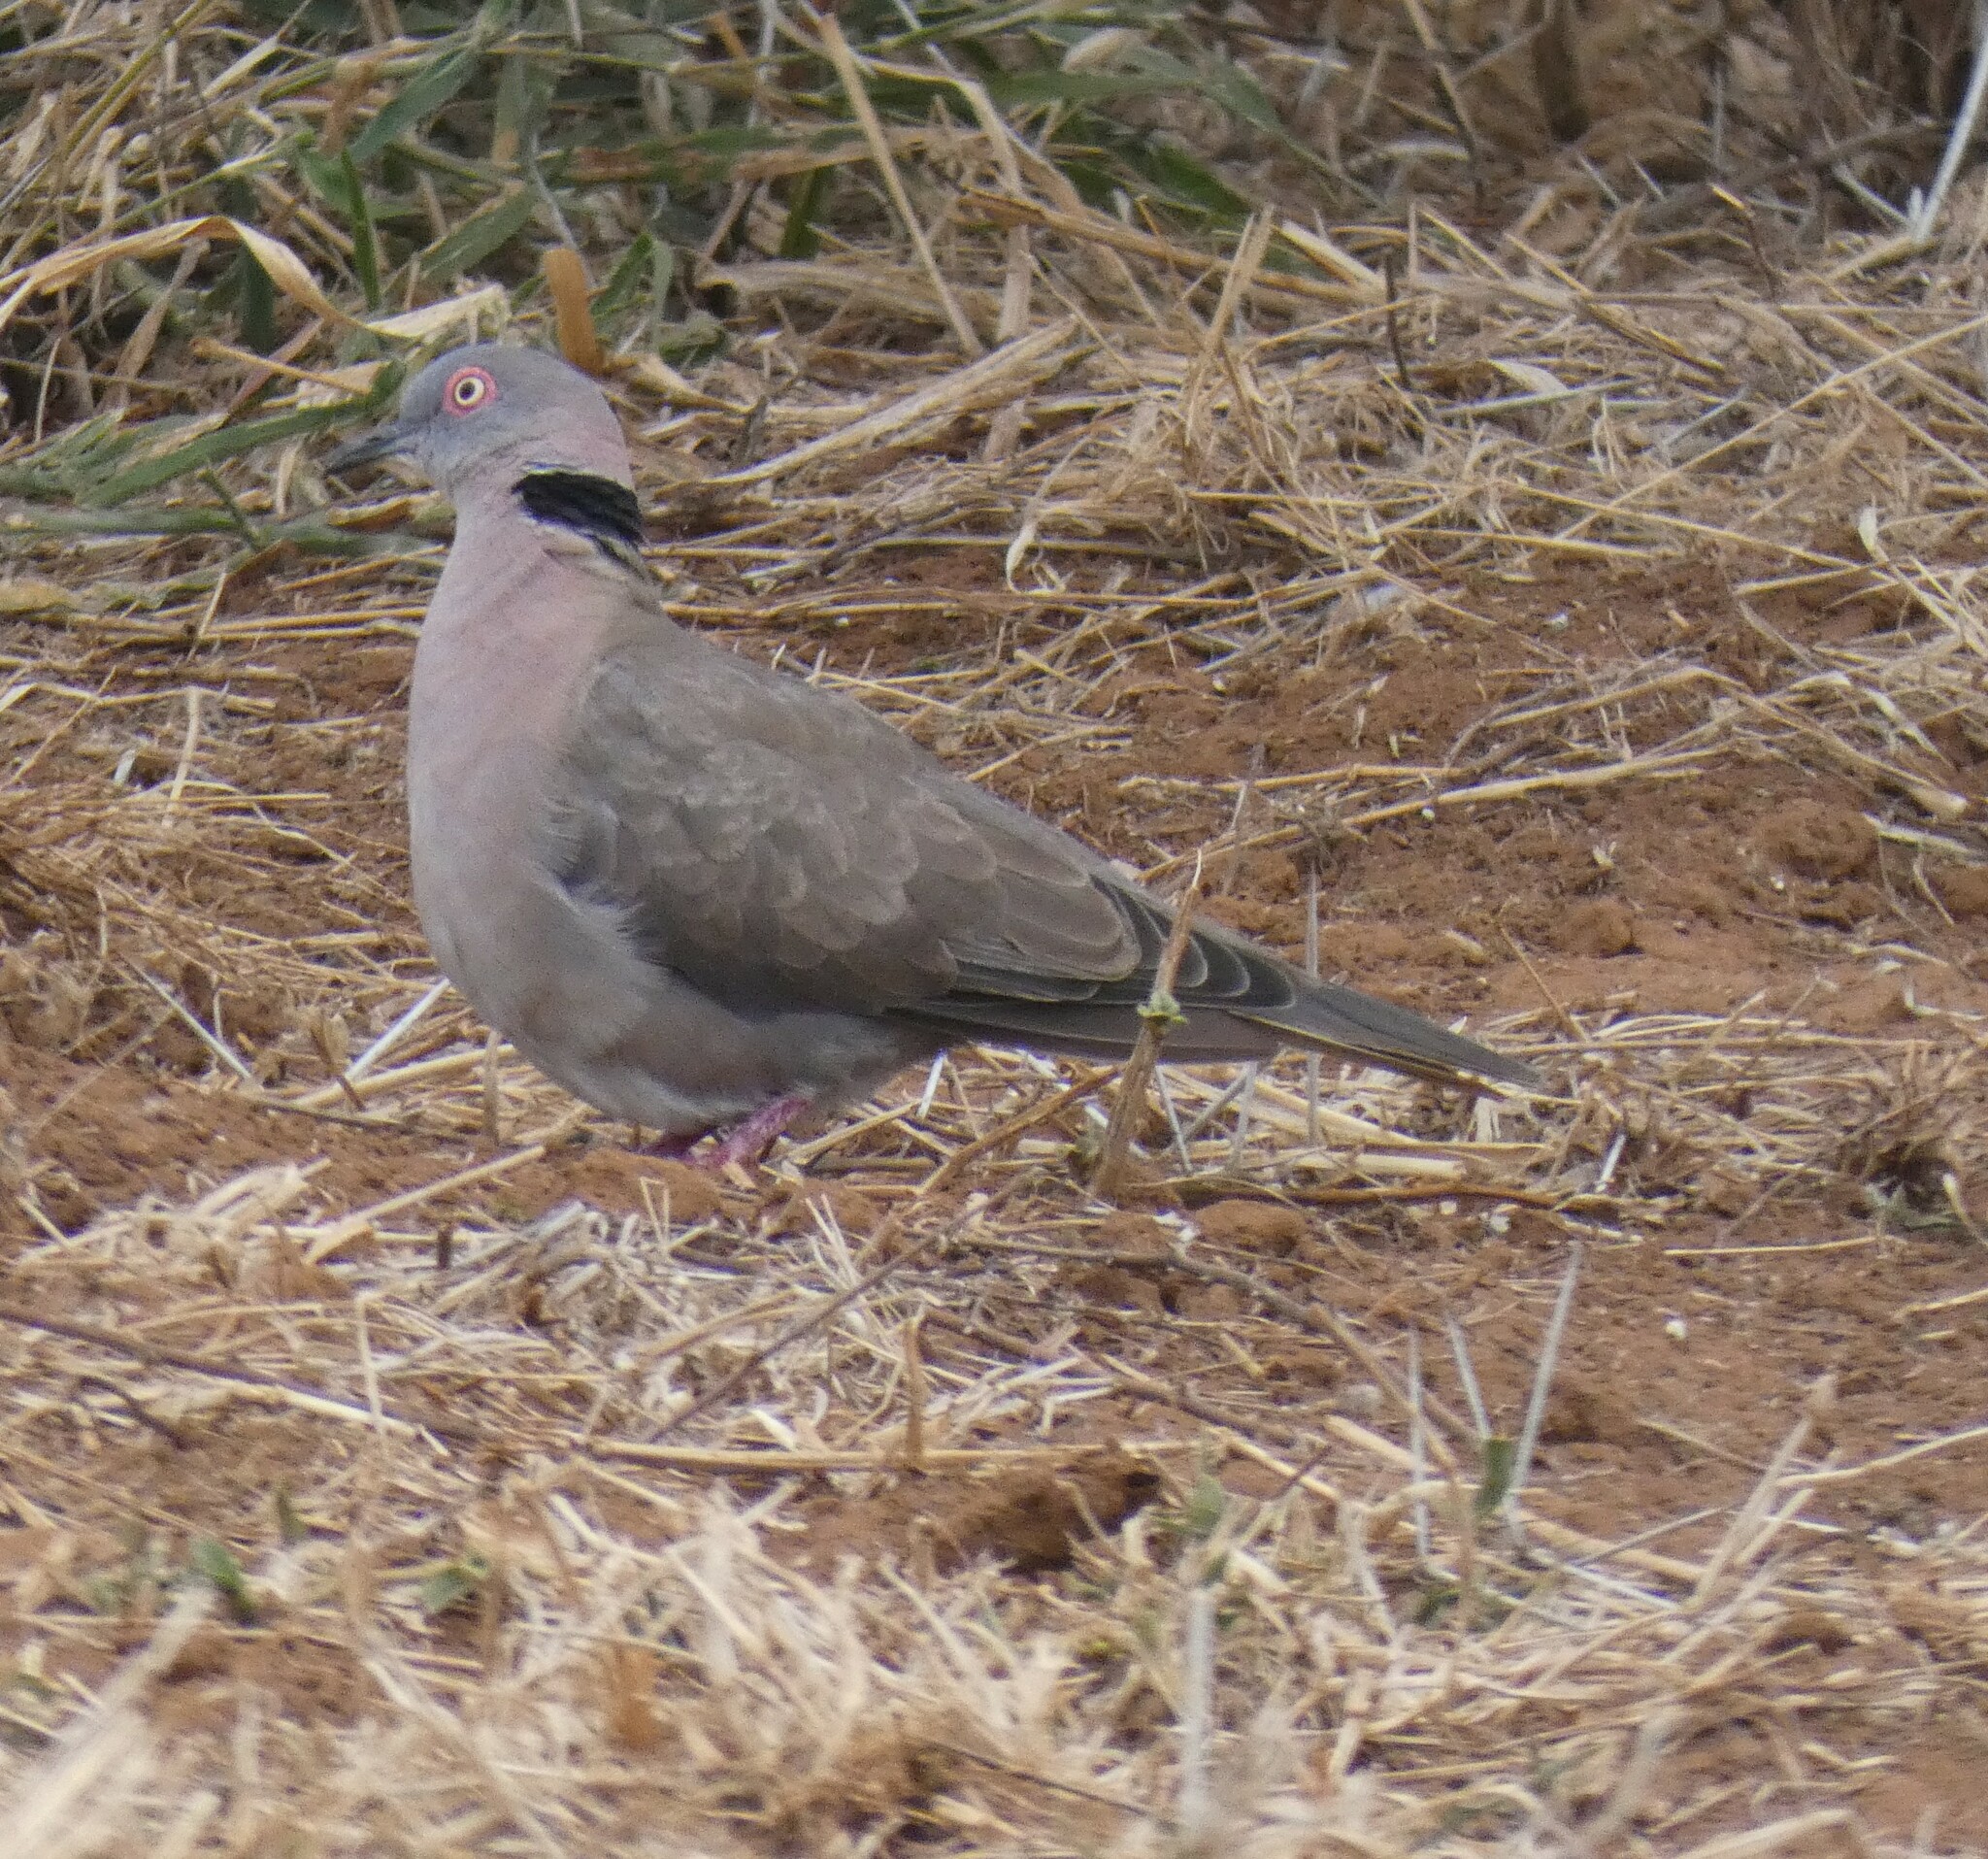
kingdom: Animalia
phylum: Chordata
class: Aves
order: Columbiformes
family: Columbidae
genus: Streptopelia
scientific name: Streptopelia decipiens
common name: Mourning collared dove
